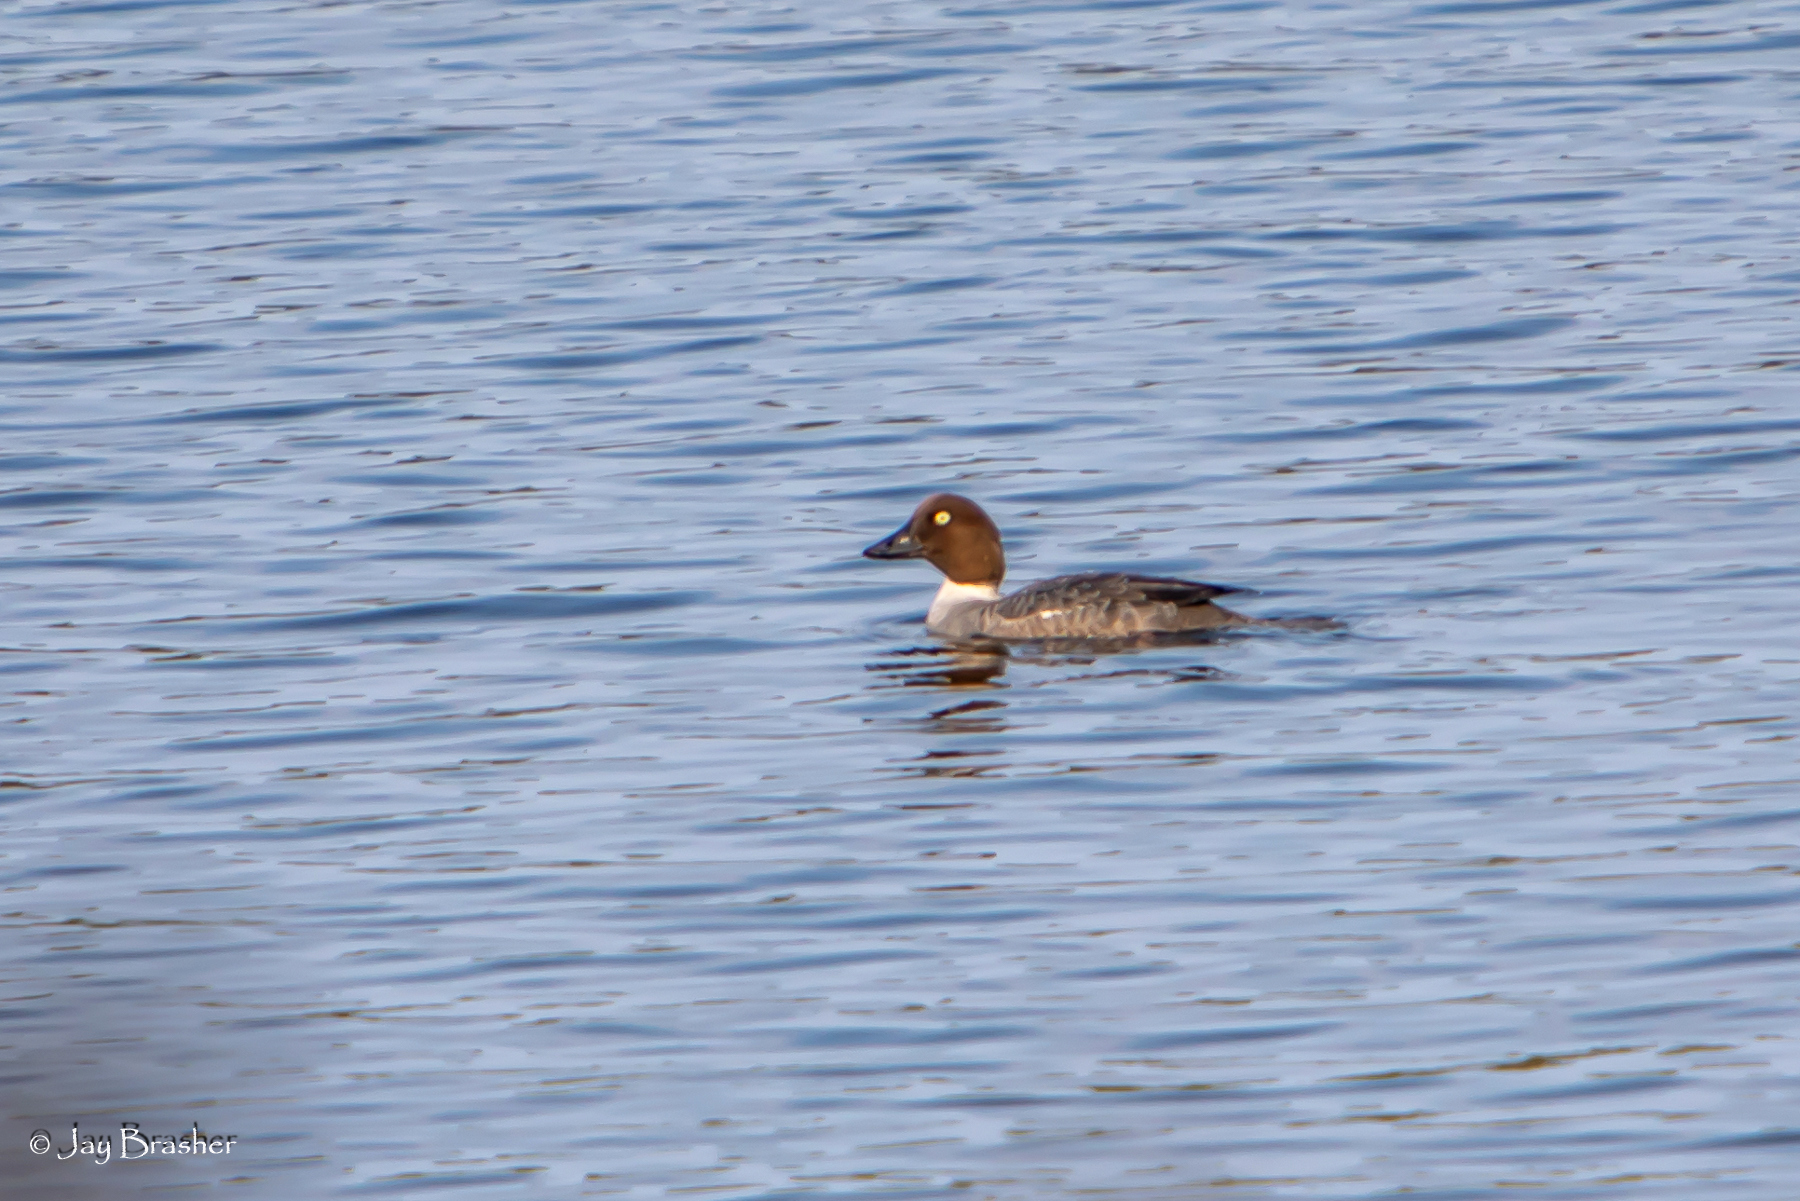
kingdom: Animalia
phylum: Chordata
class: Aves
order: Anseriformes
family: Anatidae
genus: Bucephala
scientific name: Bucephala clangula
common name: Common goldeneye
